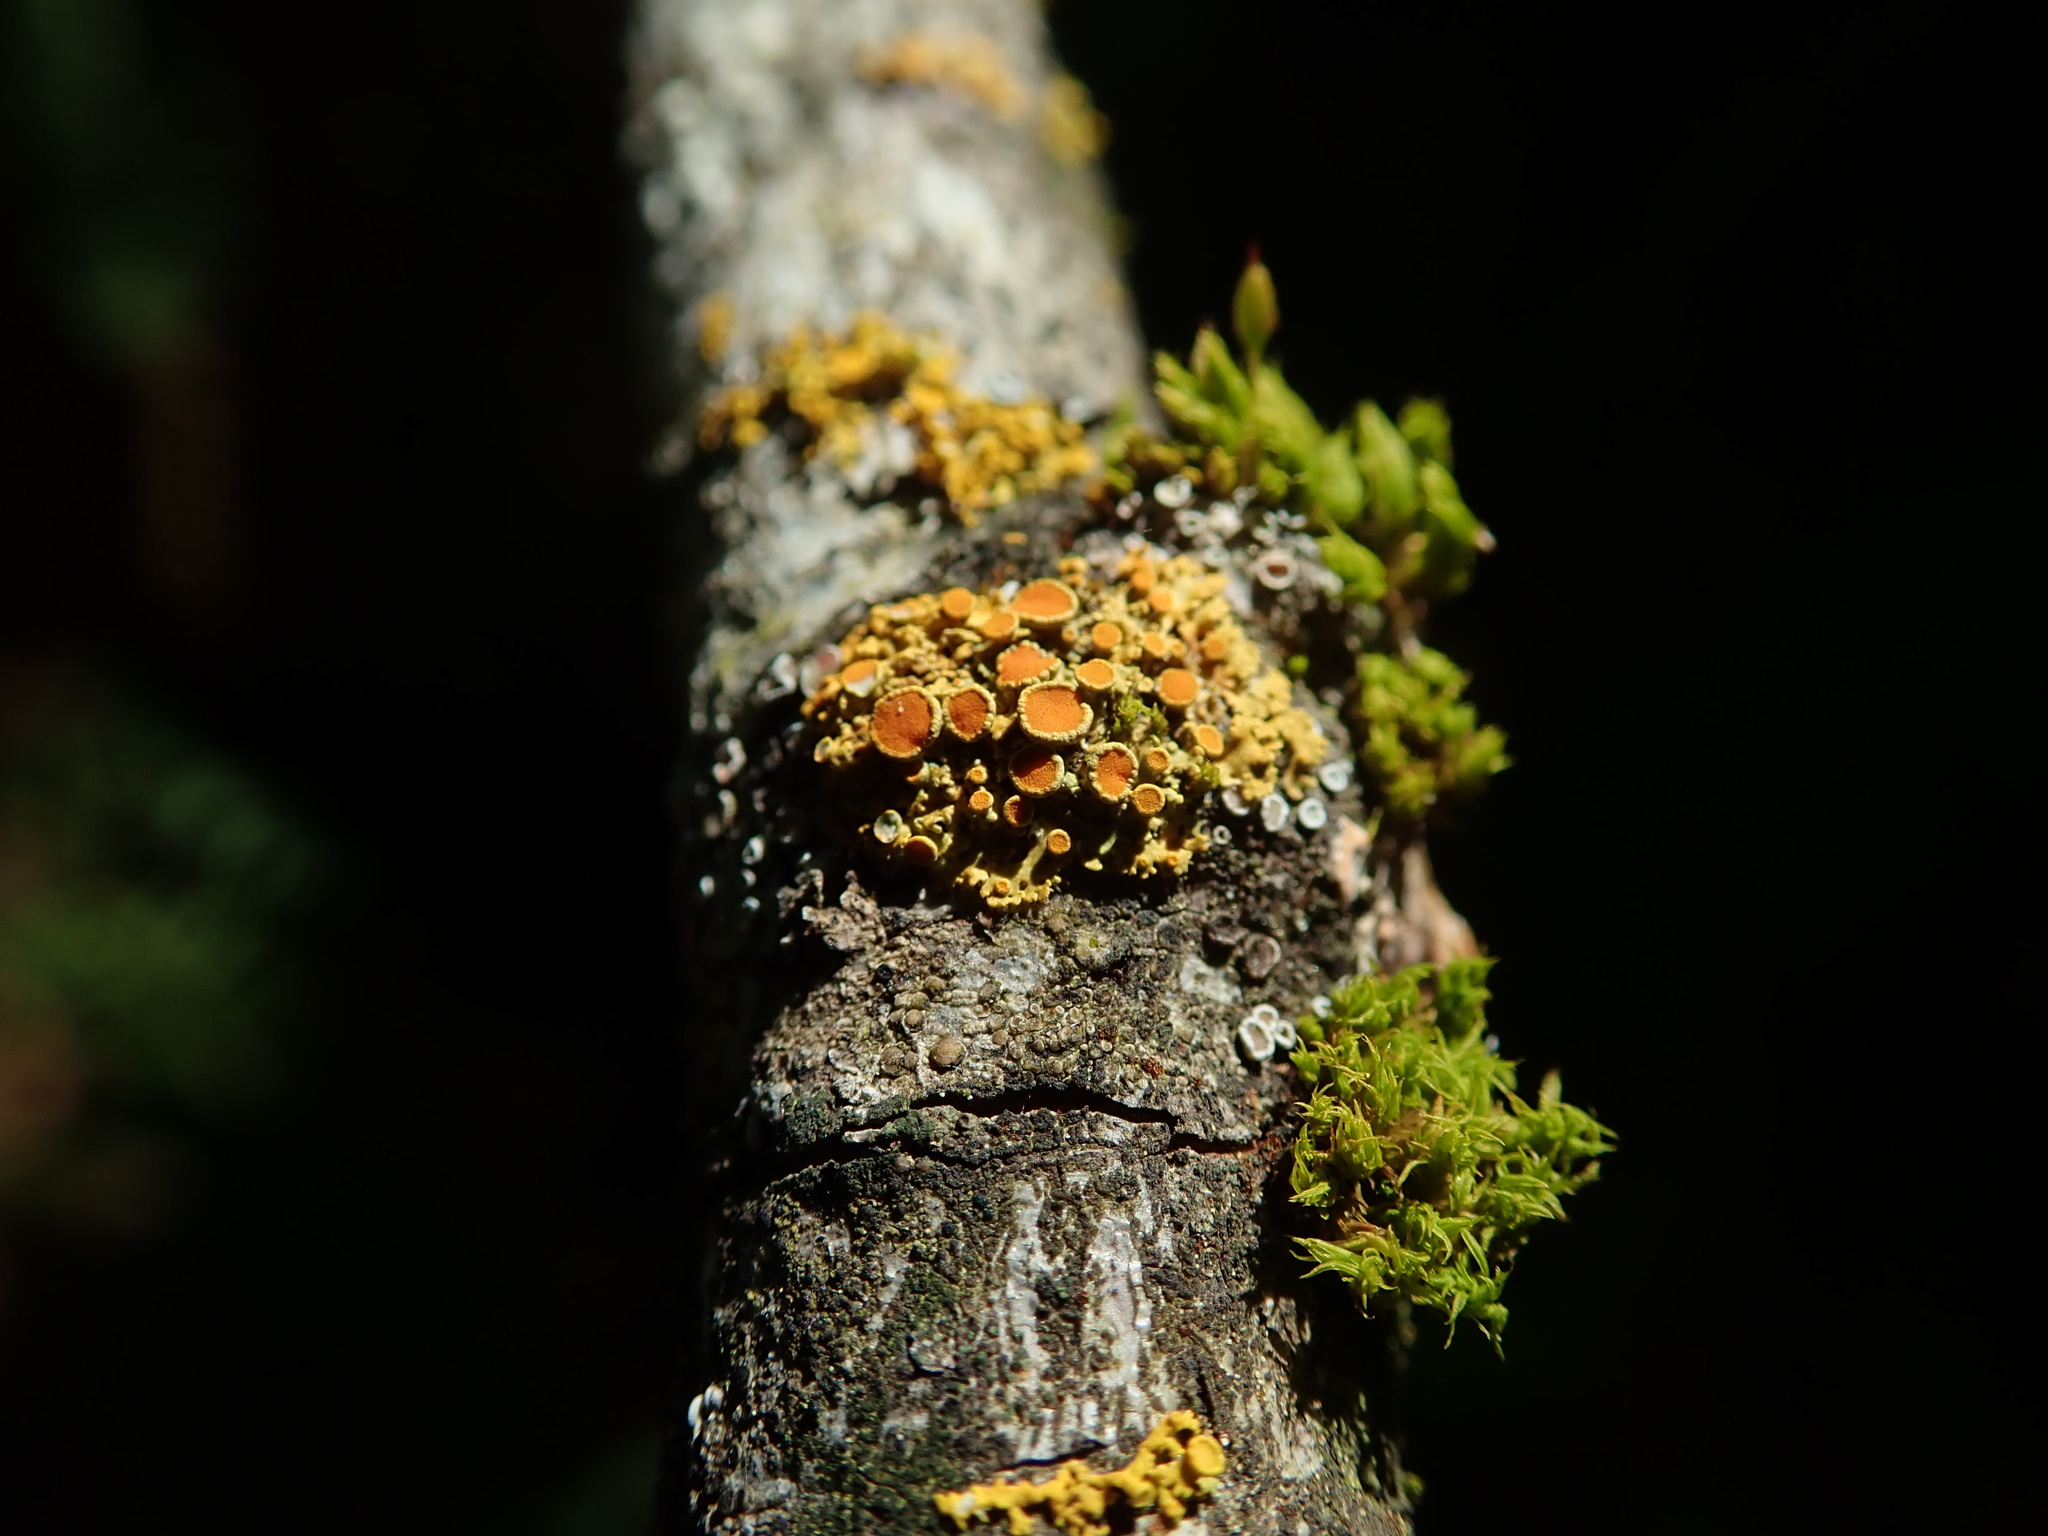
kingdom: Fungi
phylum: Ascomycota
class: Lecanoromycetes
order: Teloschistales
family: Teloschistaceae
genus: Gallowayella
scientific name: Gallowayella hasseana
